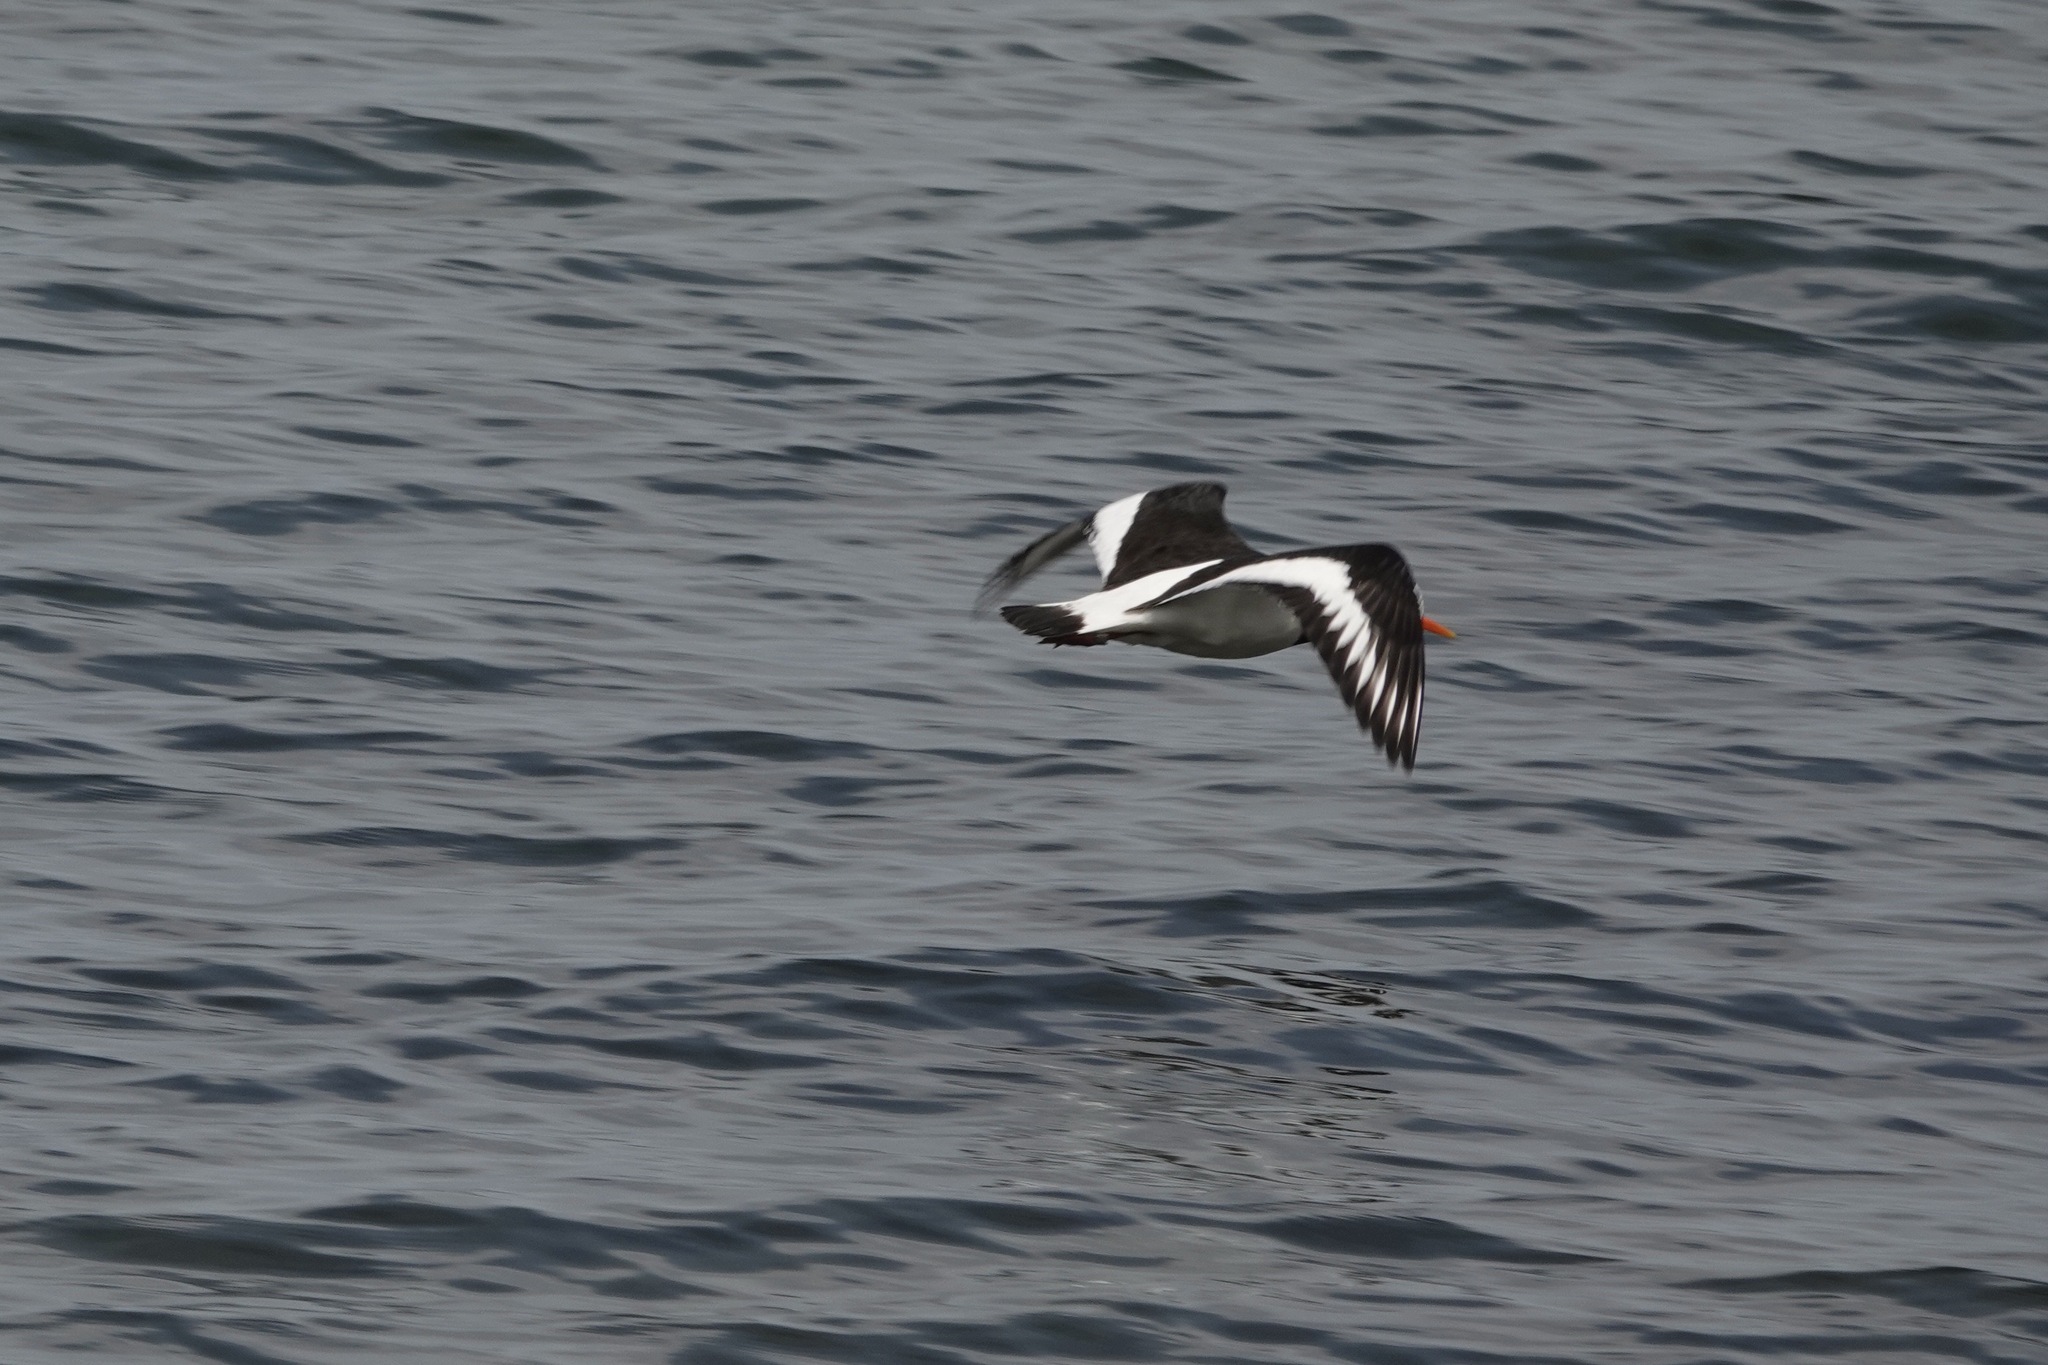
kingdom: Animalia
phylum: Chordata
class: Aves
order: Charadriiformes
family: Haematopodidae
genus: Haematopus
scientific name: Haematopus ostralegus
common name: Eurasian oystercatcher
